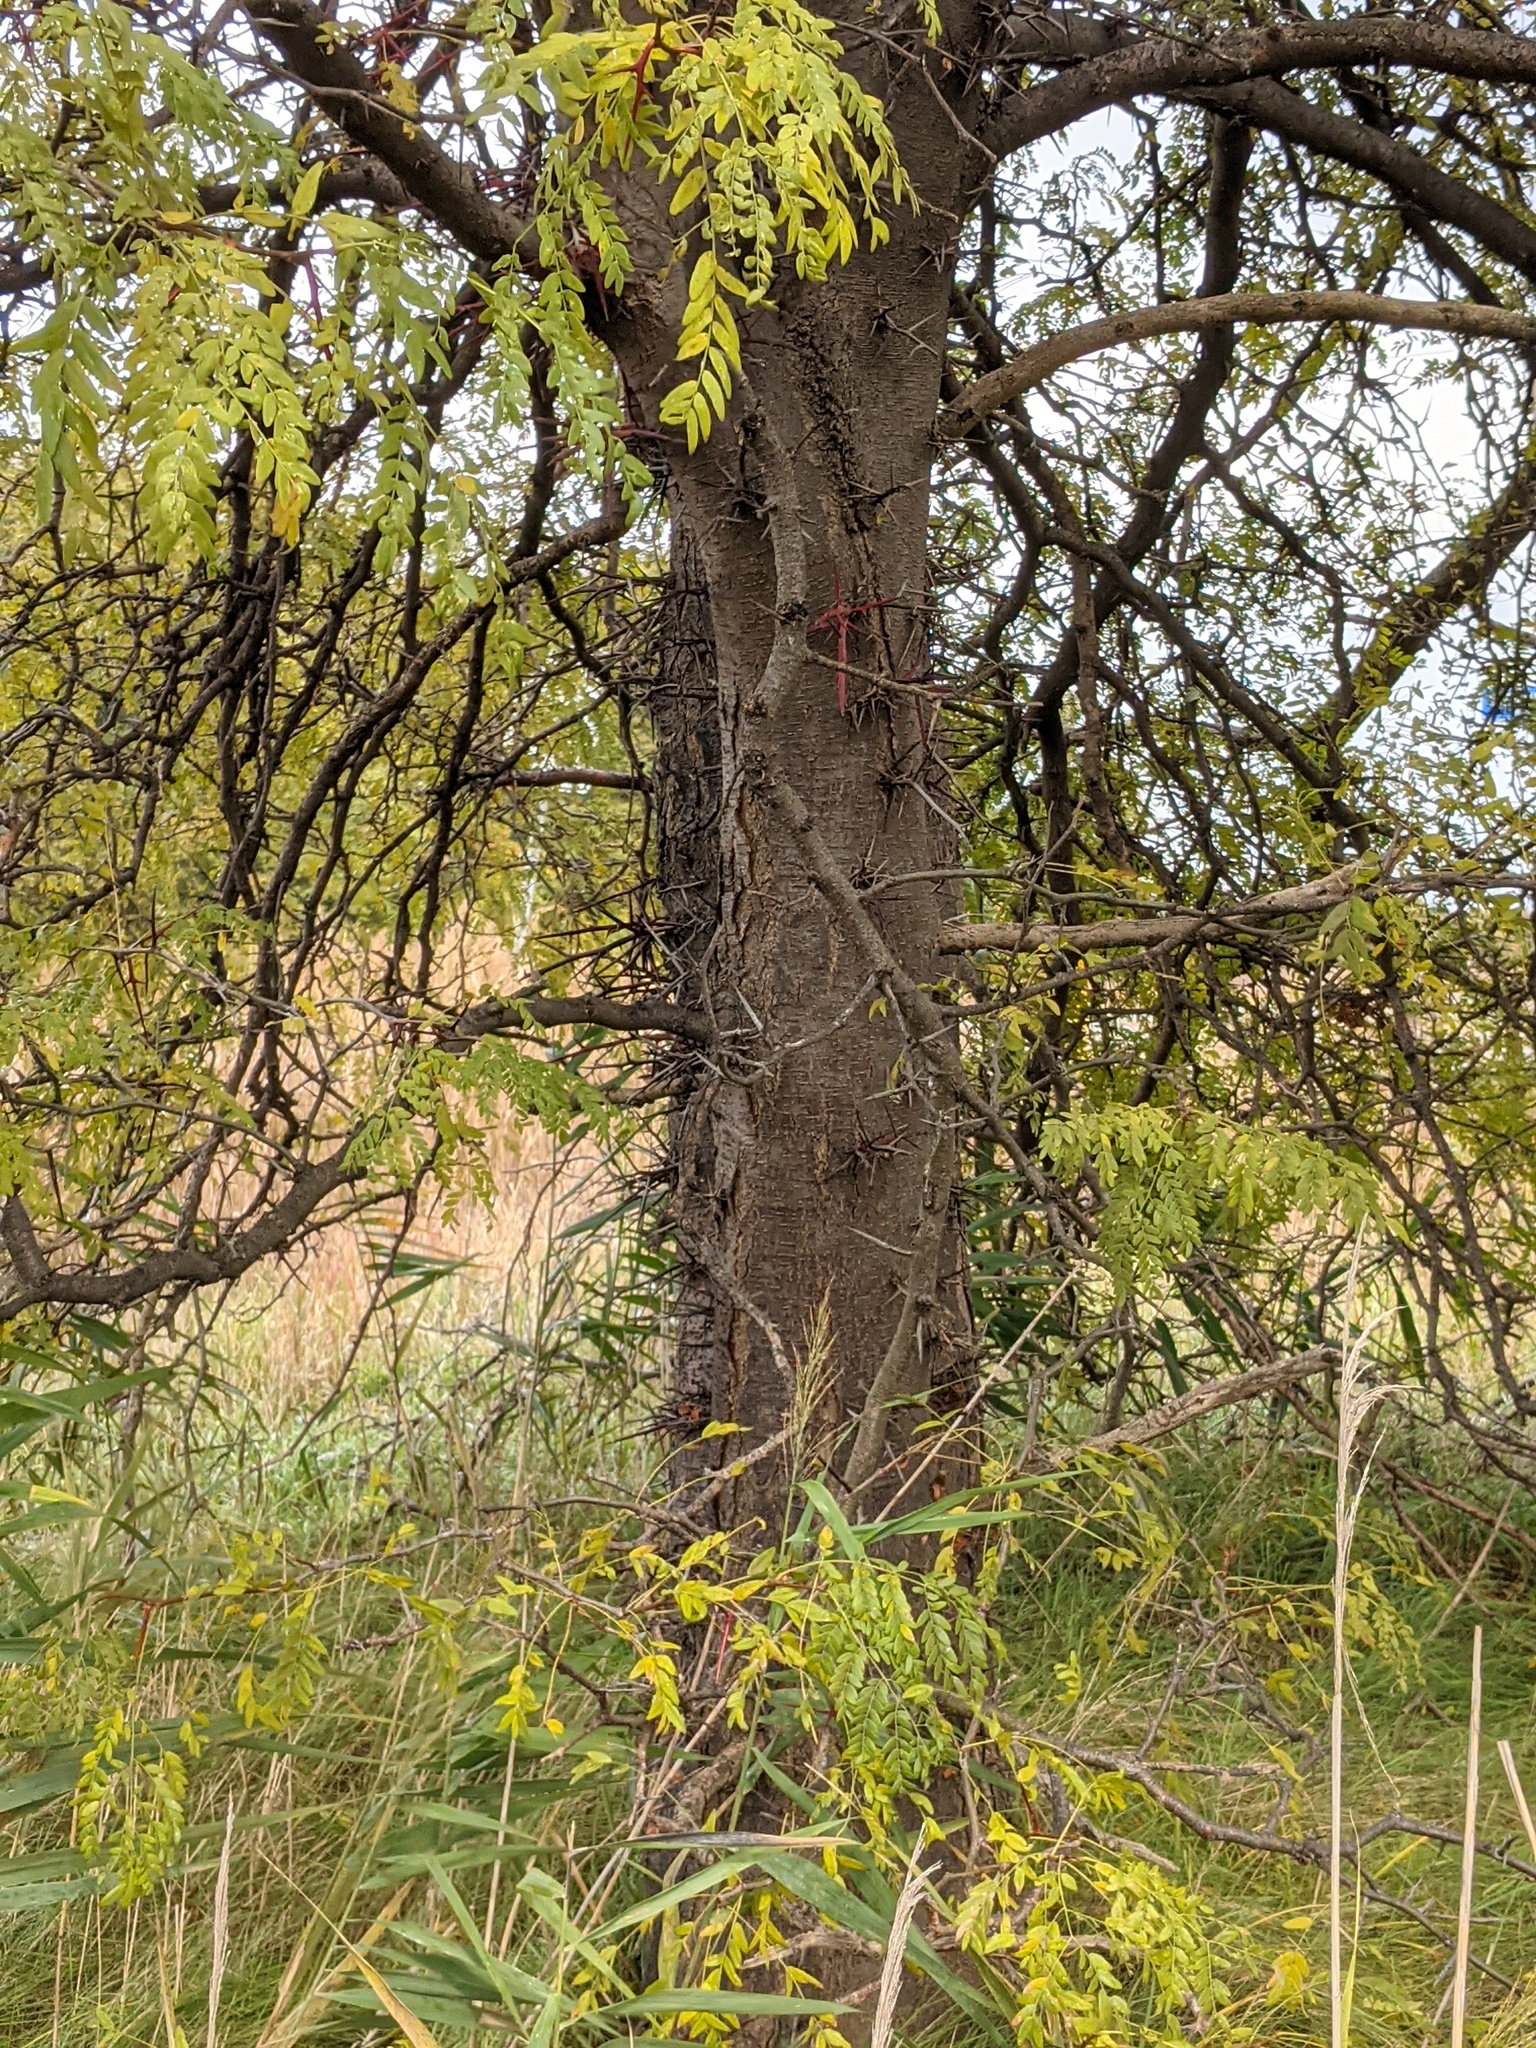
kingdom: Plantae
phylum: Tracheophyta
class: Magnoliopsida
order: Fabales
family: Fabaceae
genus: Gleditsia
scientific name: Gleditsia triacanthos
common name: Common honeylocust
